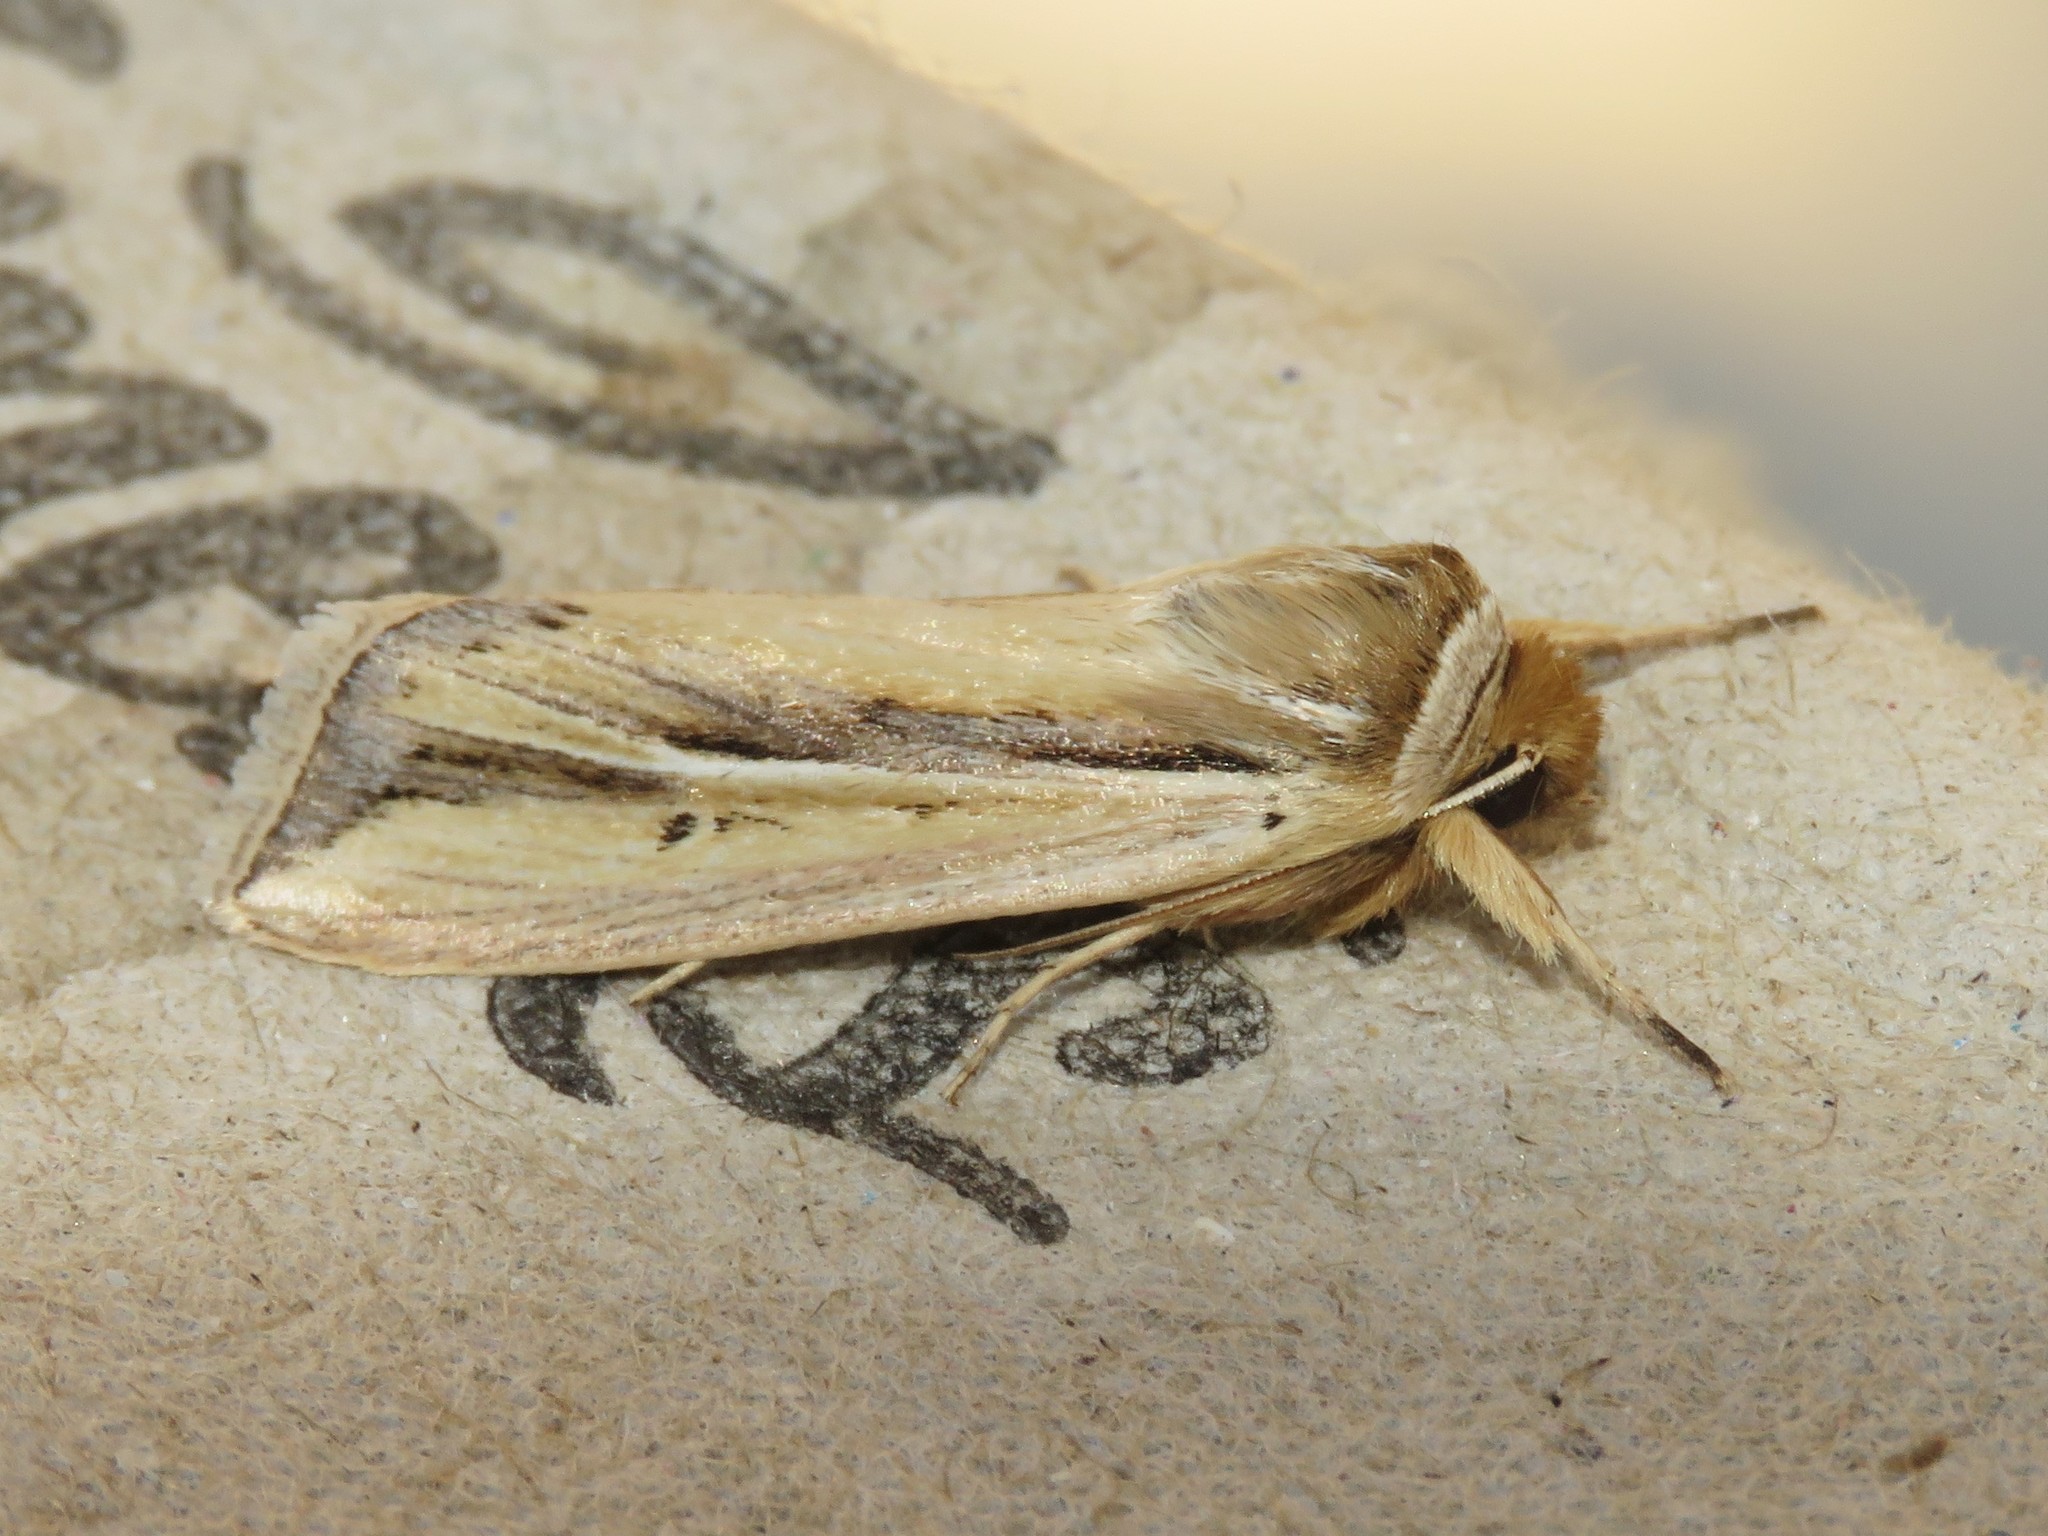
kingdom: Animalia
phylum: Arthropoda
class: Insecta
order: Lepidoptera
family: Noctuidae
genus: Dargida
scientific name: Dargida diffusa
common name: Wheat head armyworm
